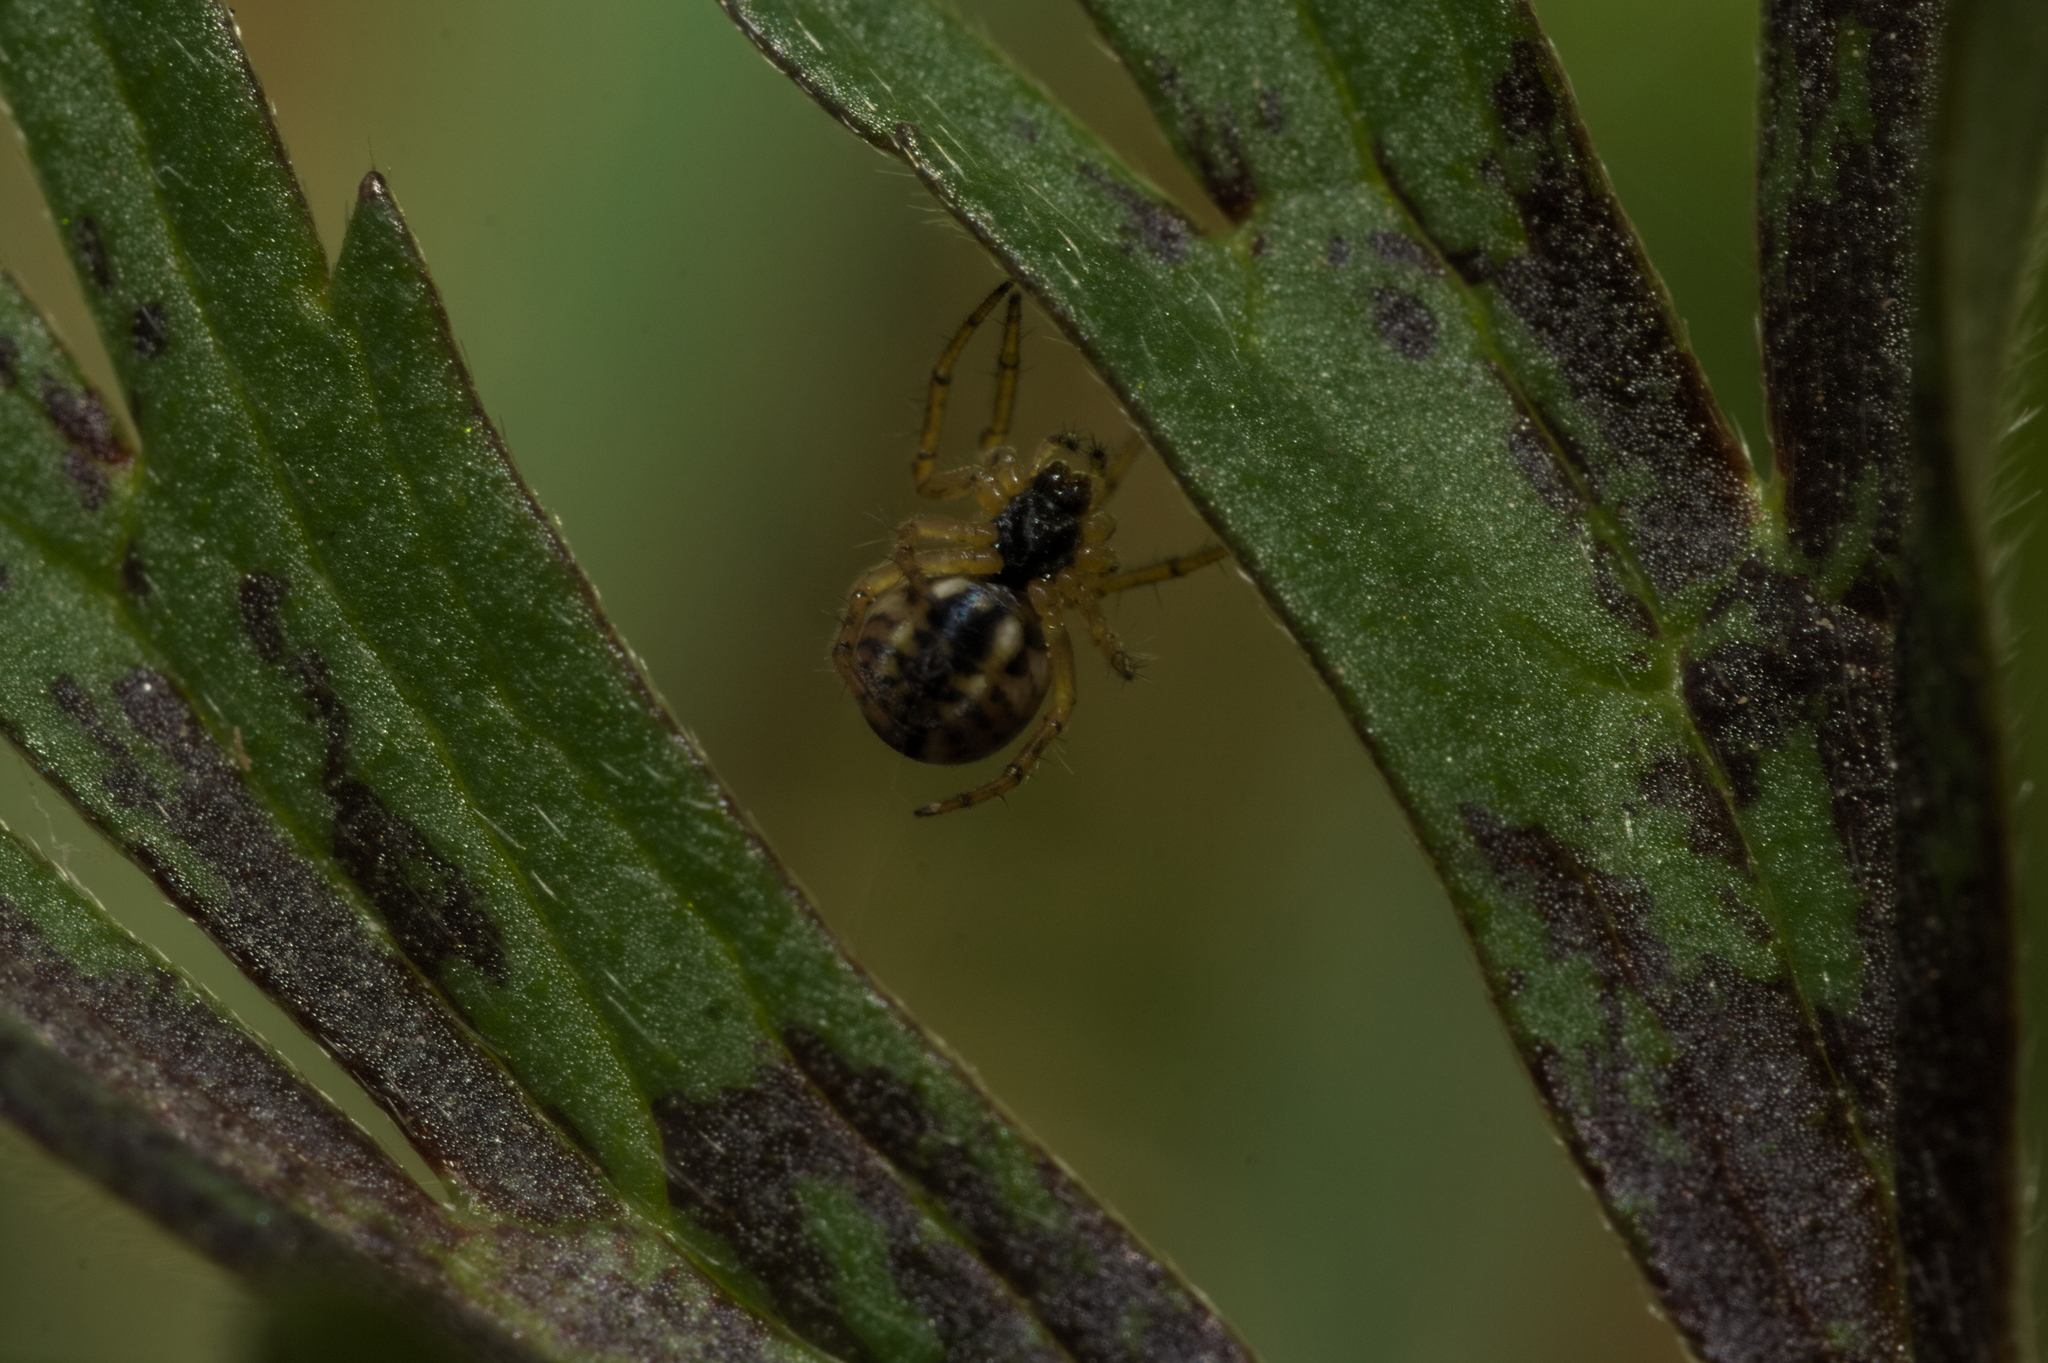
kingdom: Animalia
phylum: Arthropoda
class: Arachnida
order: Araneae
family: Araneidae
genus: Mangora
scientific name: Mangora acalypha
